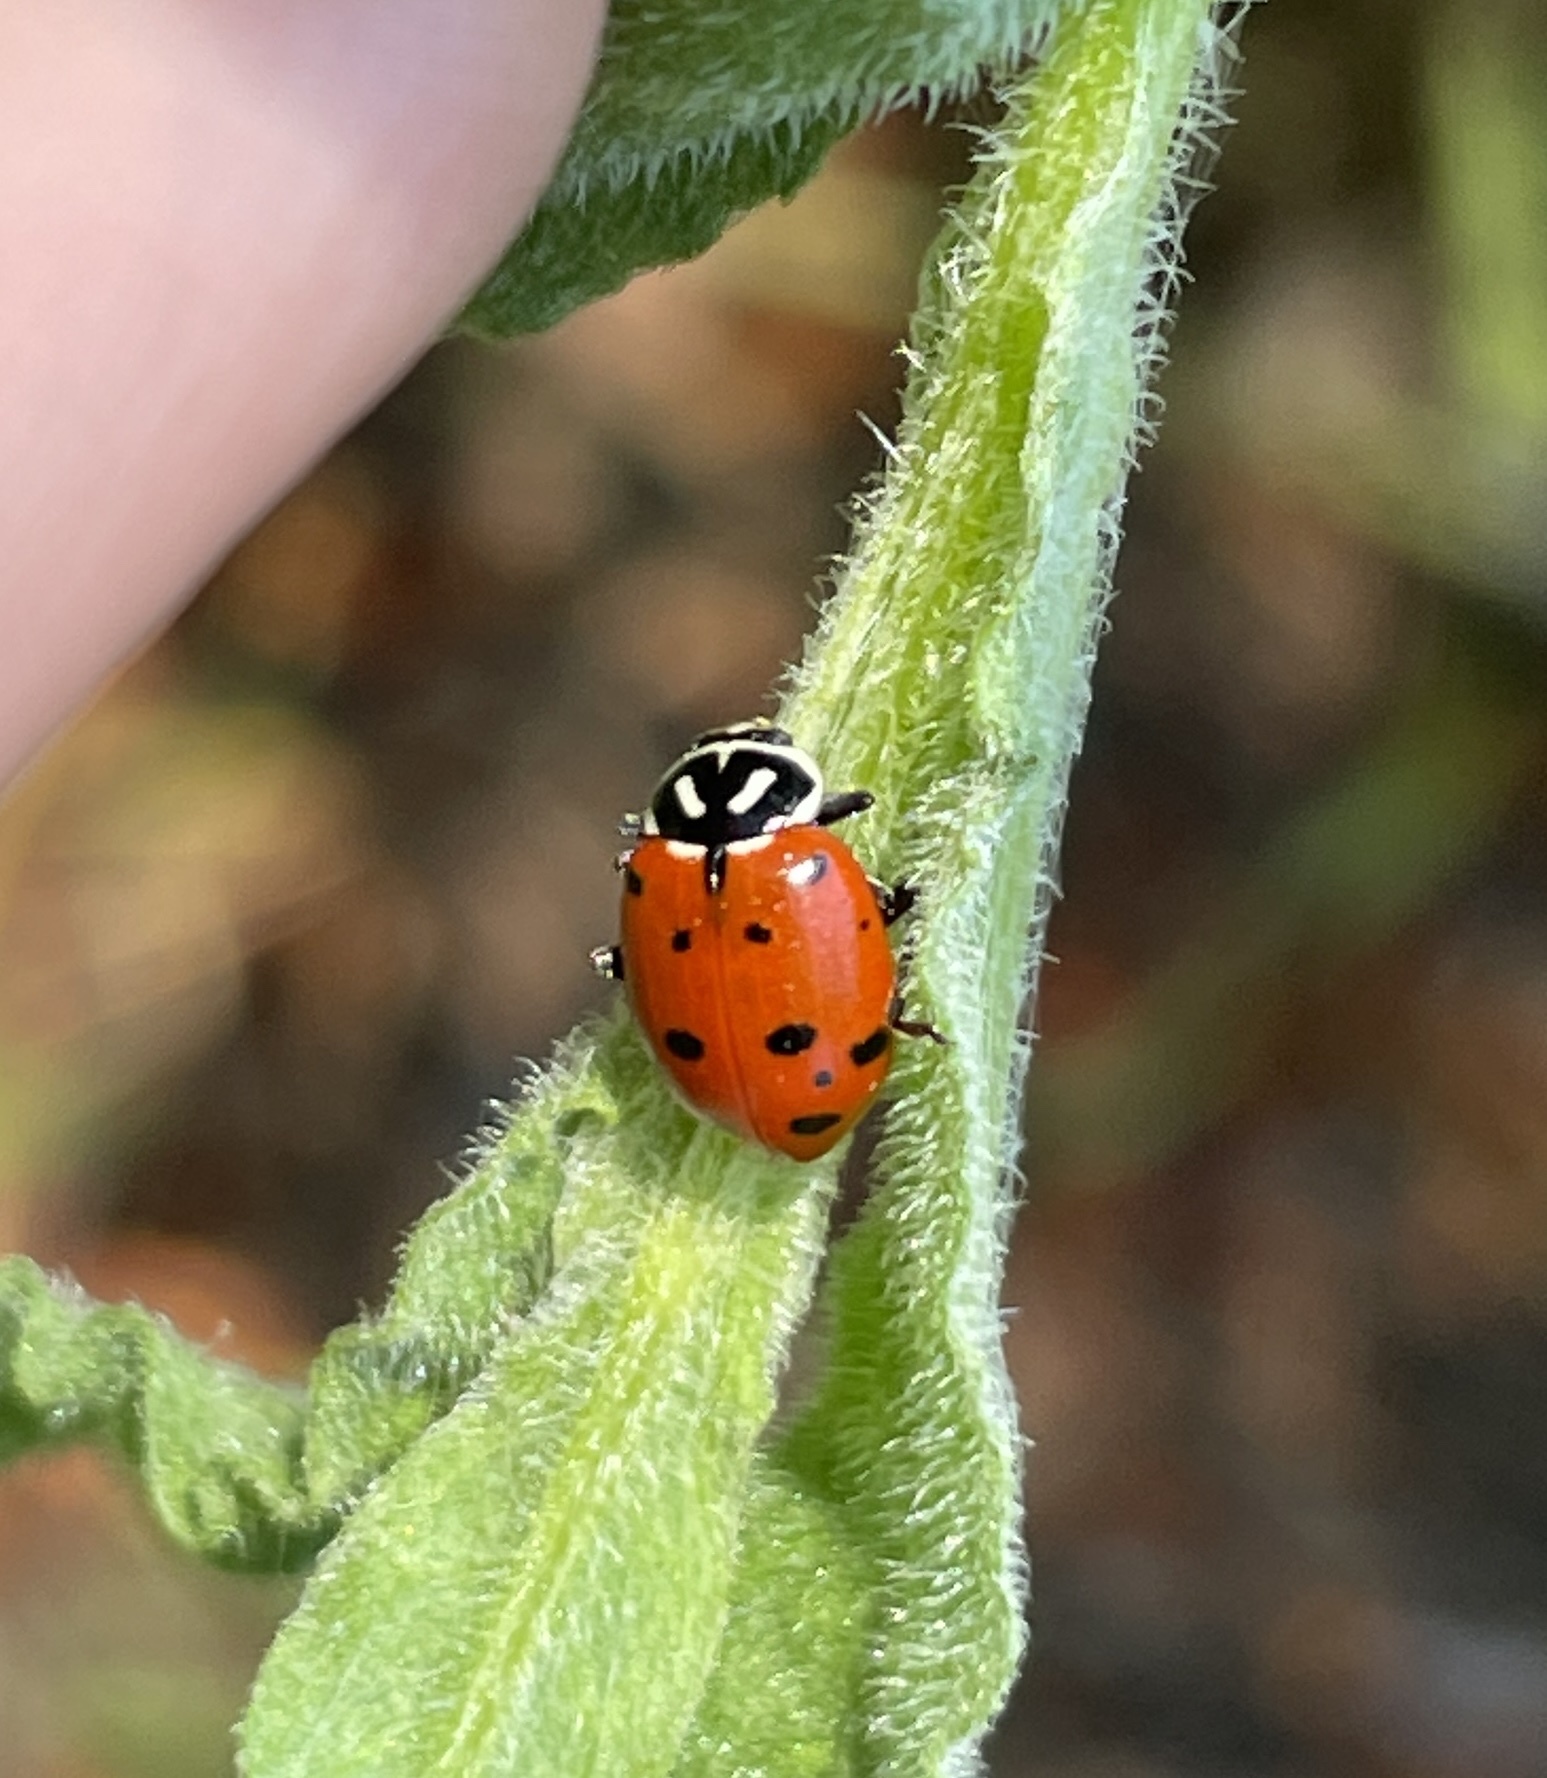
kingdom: Animalia
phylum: Arthropoda
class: Insecta
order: Coleoptera
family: Coccinellidae
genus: Hippodamia
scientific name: Hippodamia convergens
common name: Convergent lady beetle
